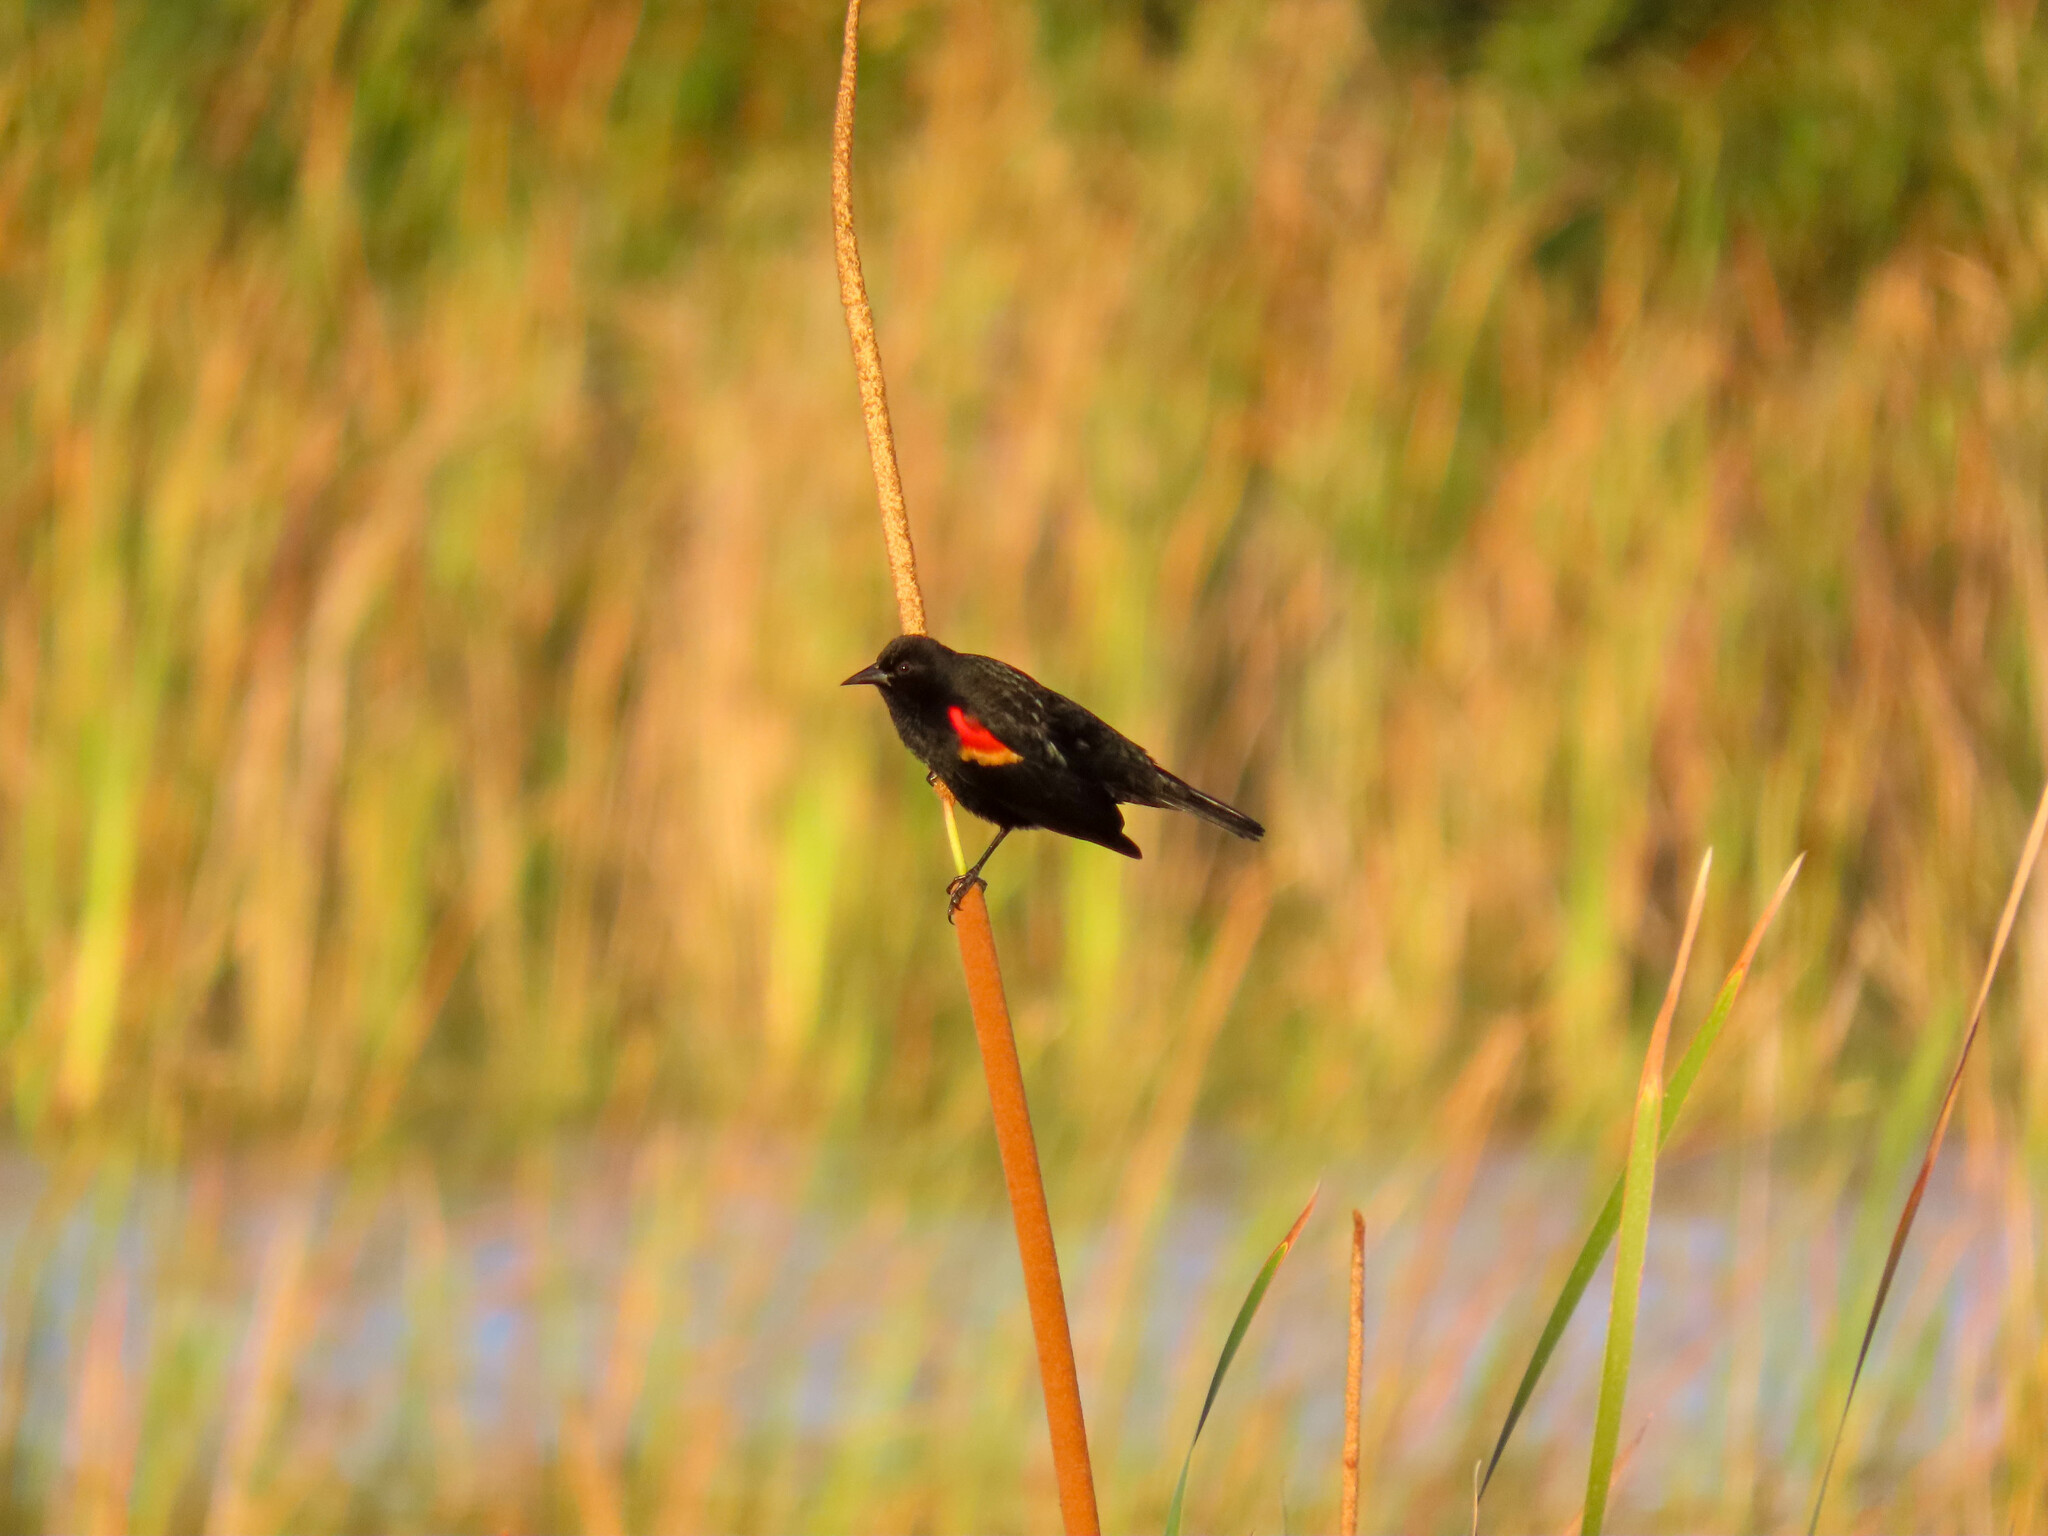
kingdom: Animalia
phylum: Chordata
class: Aves
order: Passeriformes
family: Icteridae
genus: Agelaius
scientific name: Agelaius phoeniceus
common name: Red-winged blackbird
